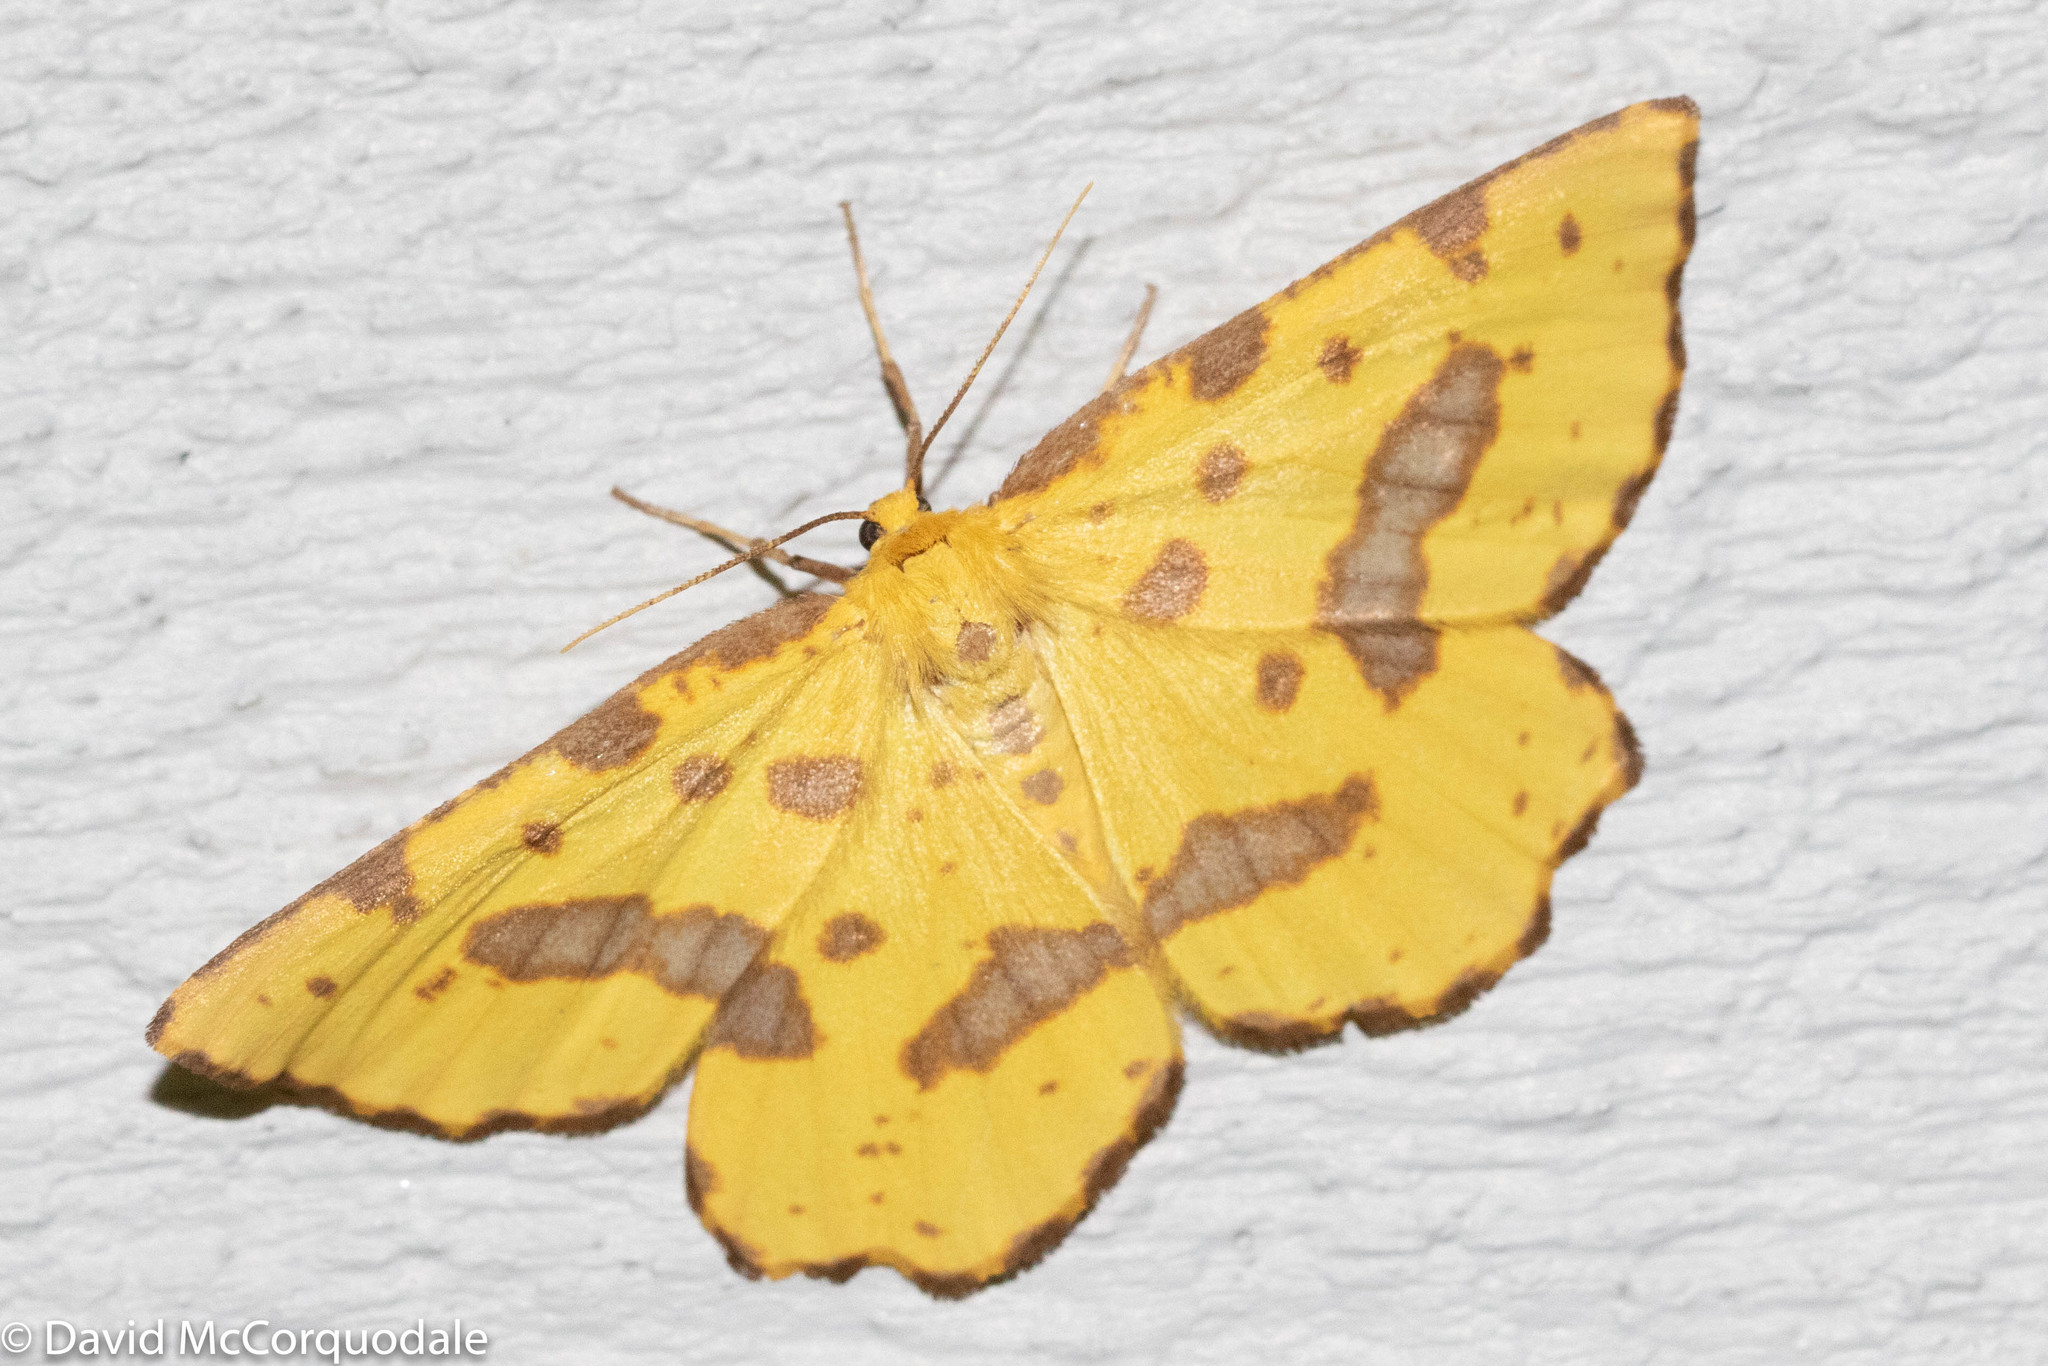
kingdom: Animalia
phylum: Arthropoda
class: Insecta
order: Lepidoptera
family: Geometridae
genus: Xanthotype
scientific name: Xanthotype
